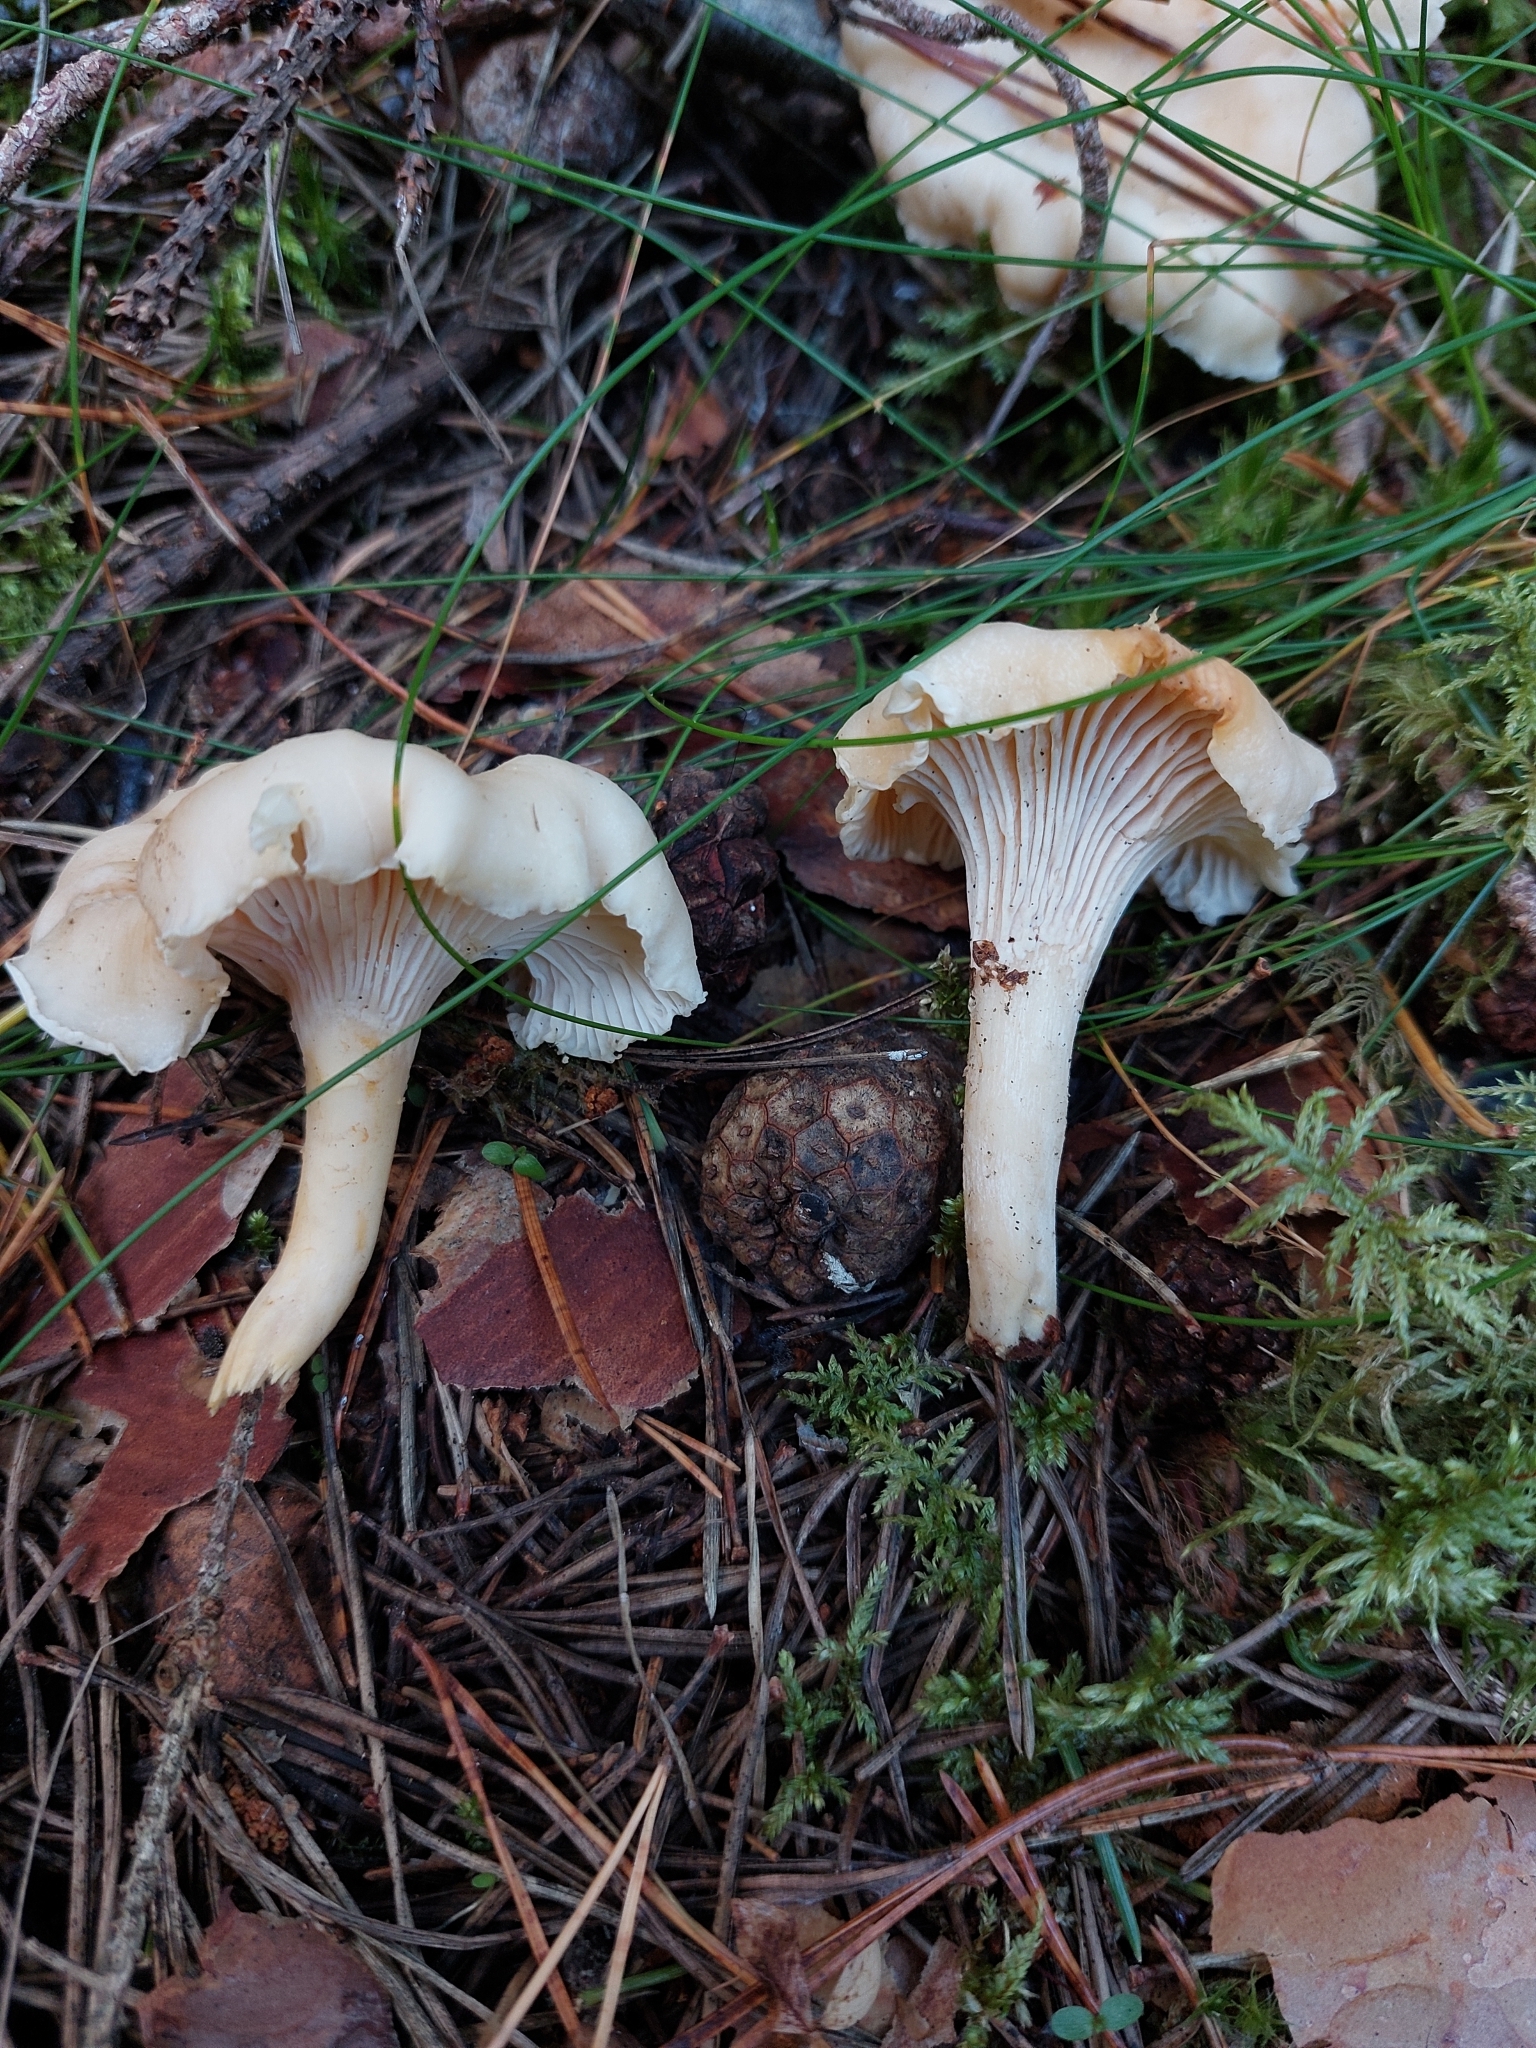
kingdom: Fungi
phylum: Basidiomycota
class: Agaricomycetes
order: Cantharellales
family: Hydnaceae
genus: Cantharellus
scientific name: Cantharellus cibarius
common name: Chanterelle
